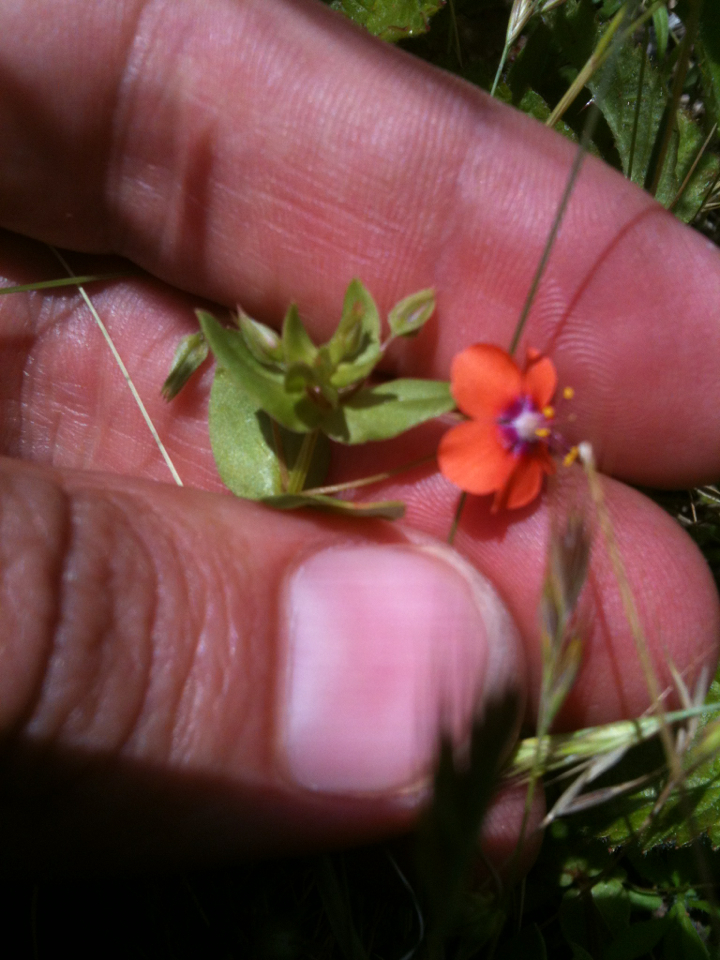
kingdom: Plantae
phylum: Tracheophyta
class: Magnoliopsida
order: Ericales
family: Primulaceae
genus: Lysimachia
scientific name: Lysimachia arvensis
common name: Scarlet pimpernel
